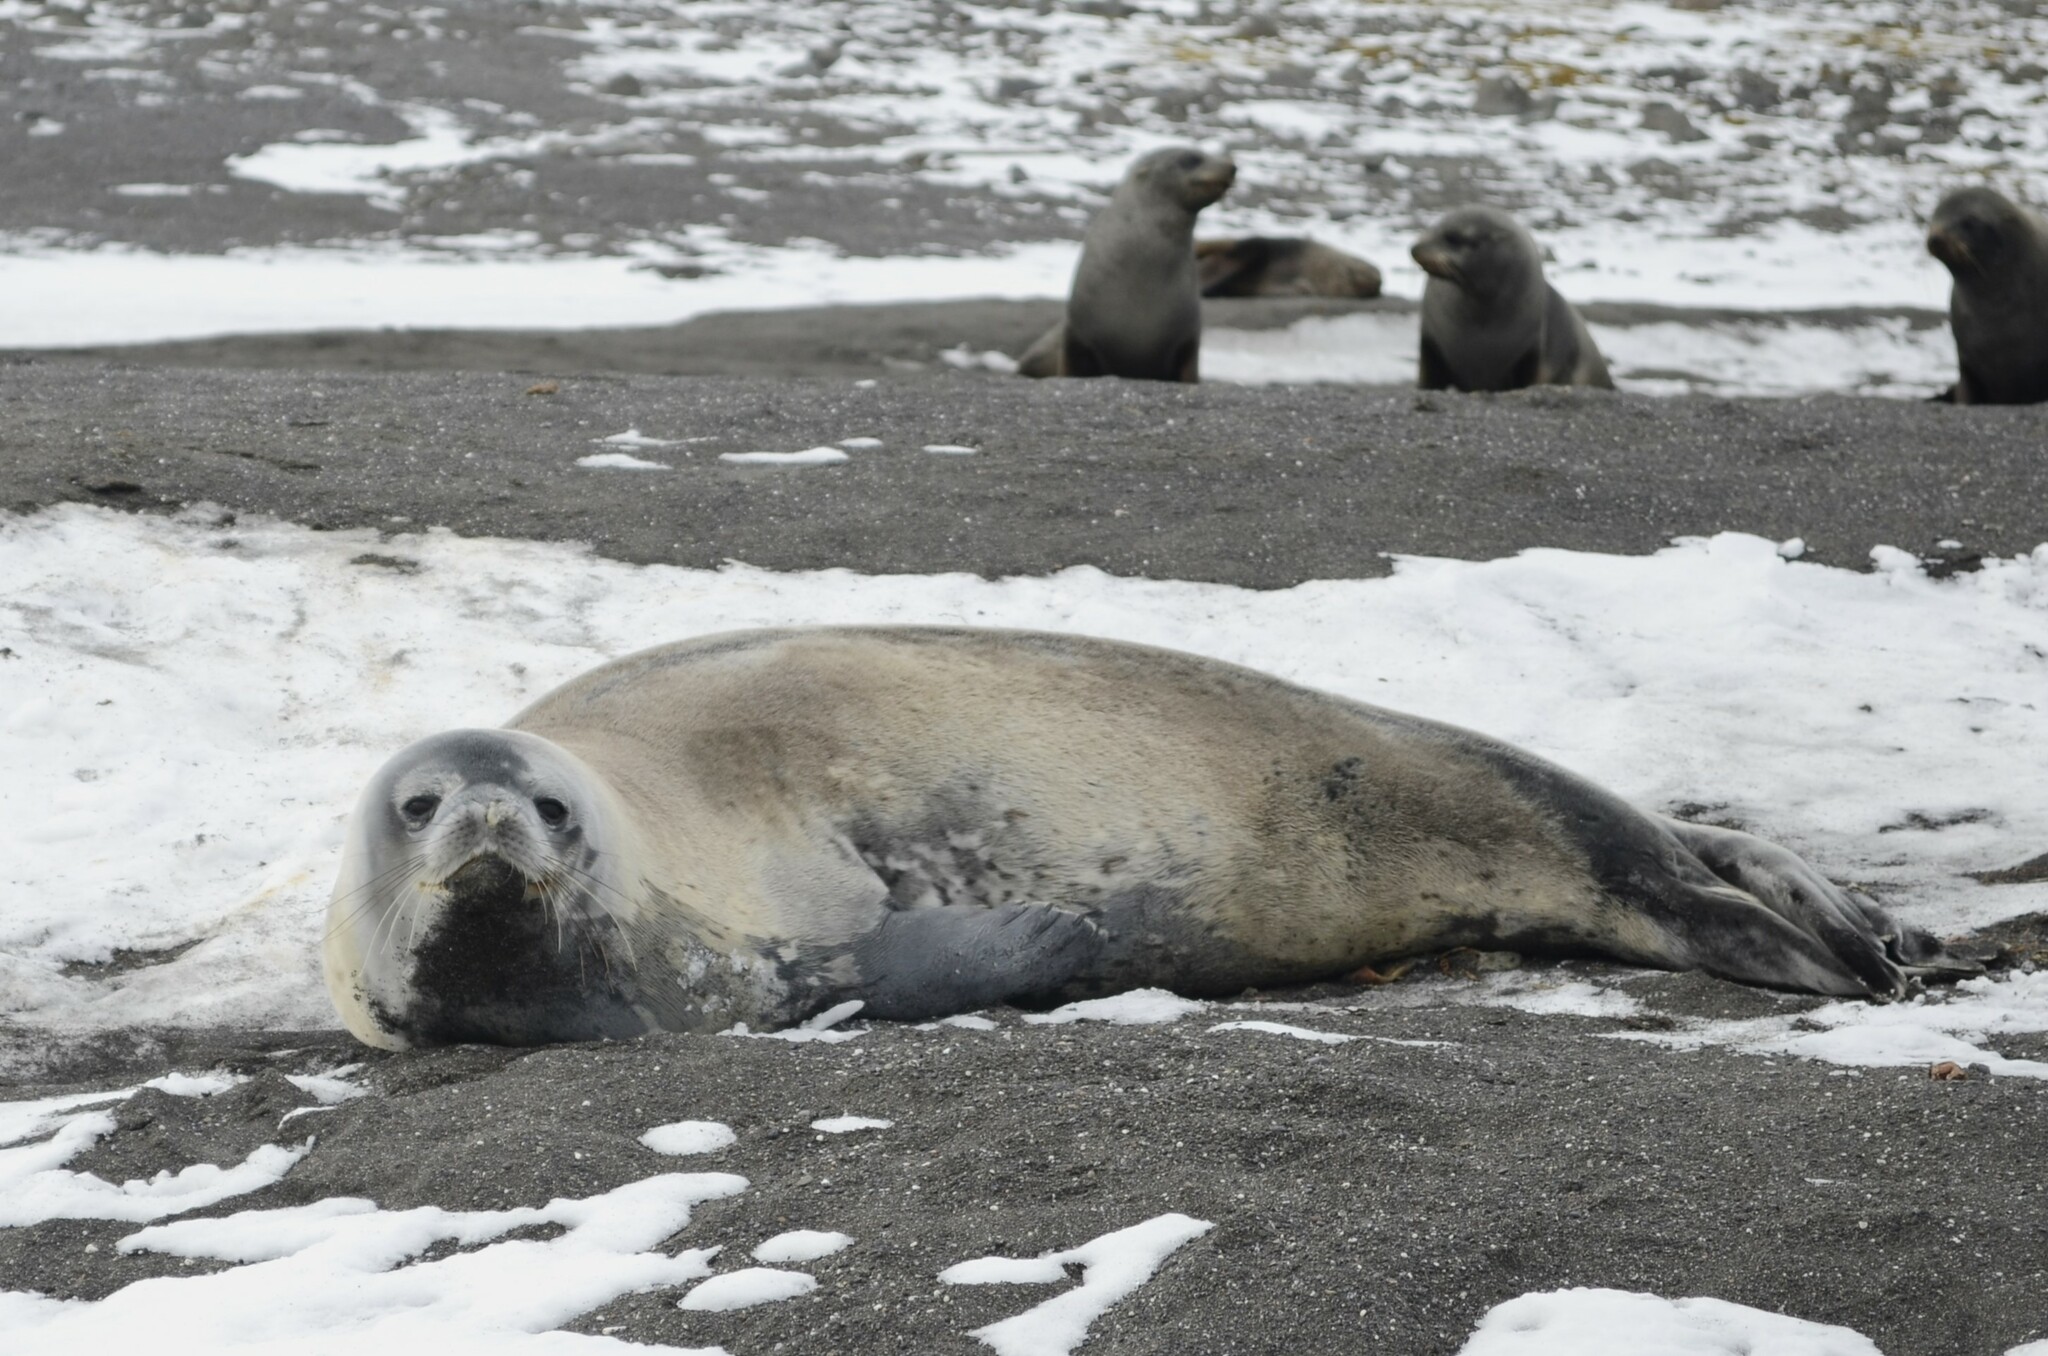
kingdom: Animalia
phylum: Chordata
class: Mammalia
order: Carnivora
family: Phocidae
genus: Leptonychotes
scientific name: Leptonychotes weddellii
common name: Weddell seal
